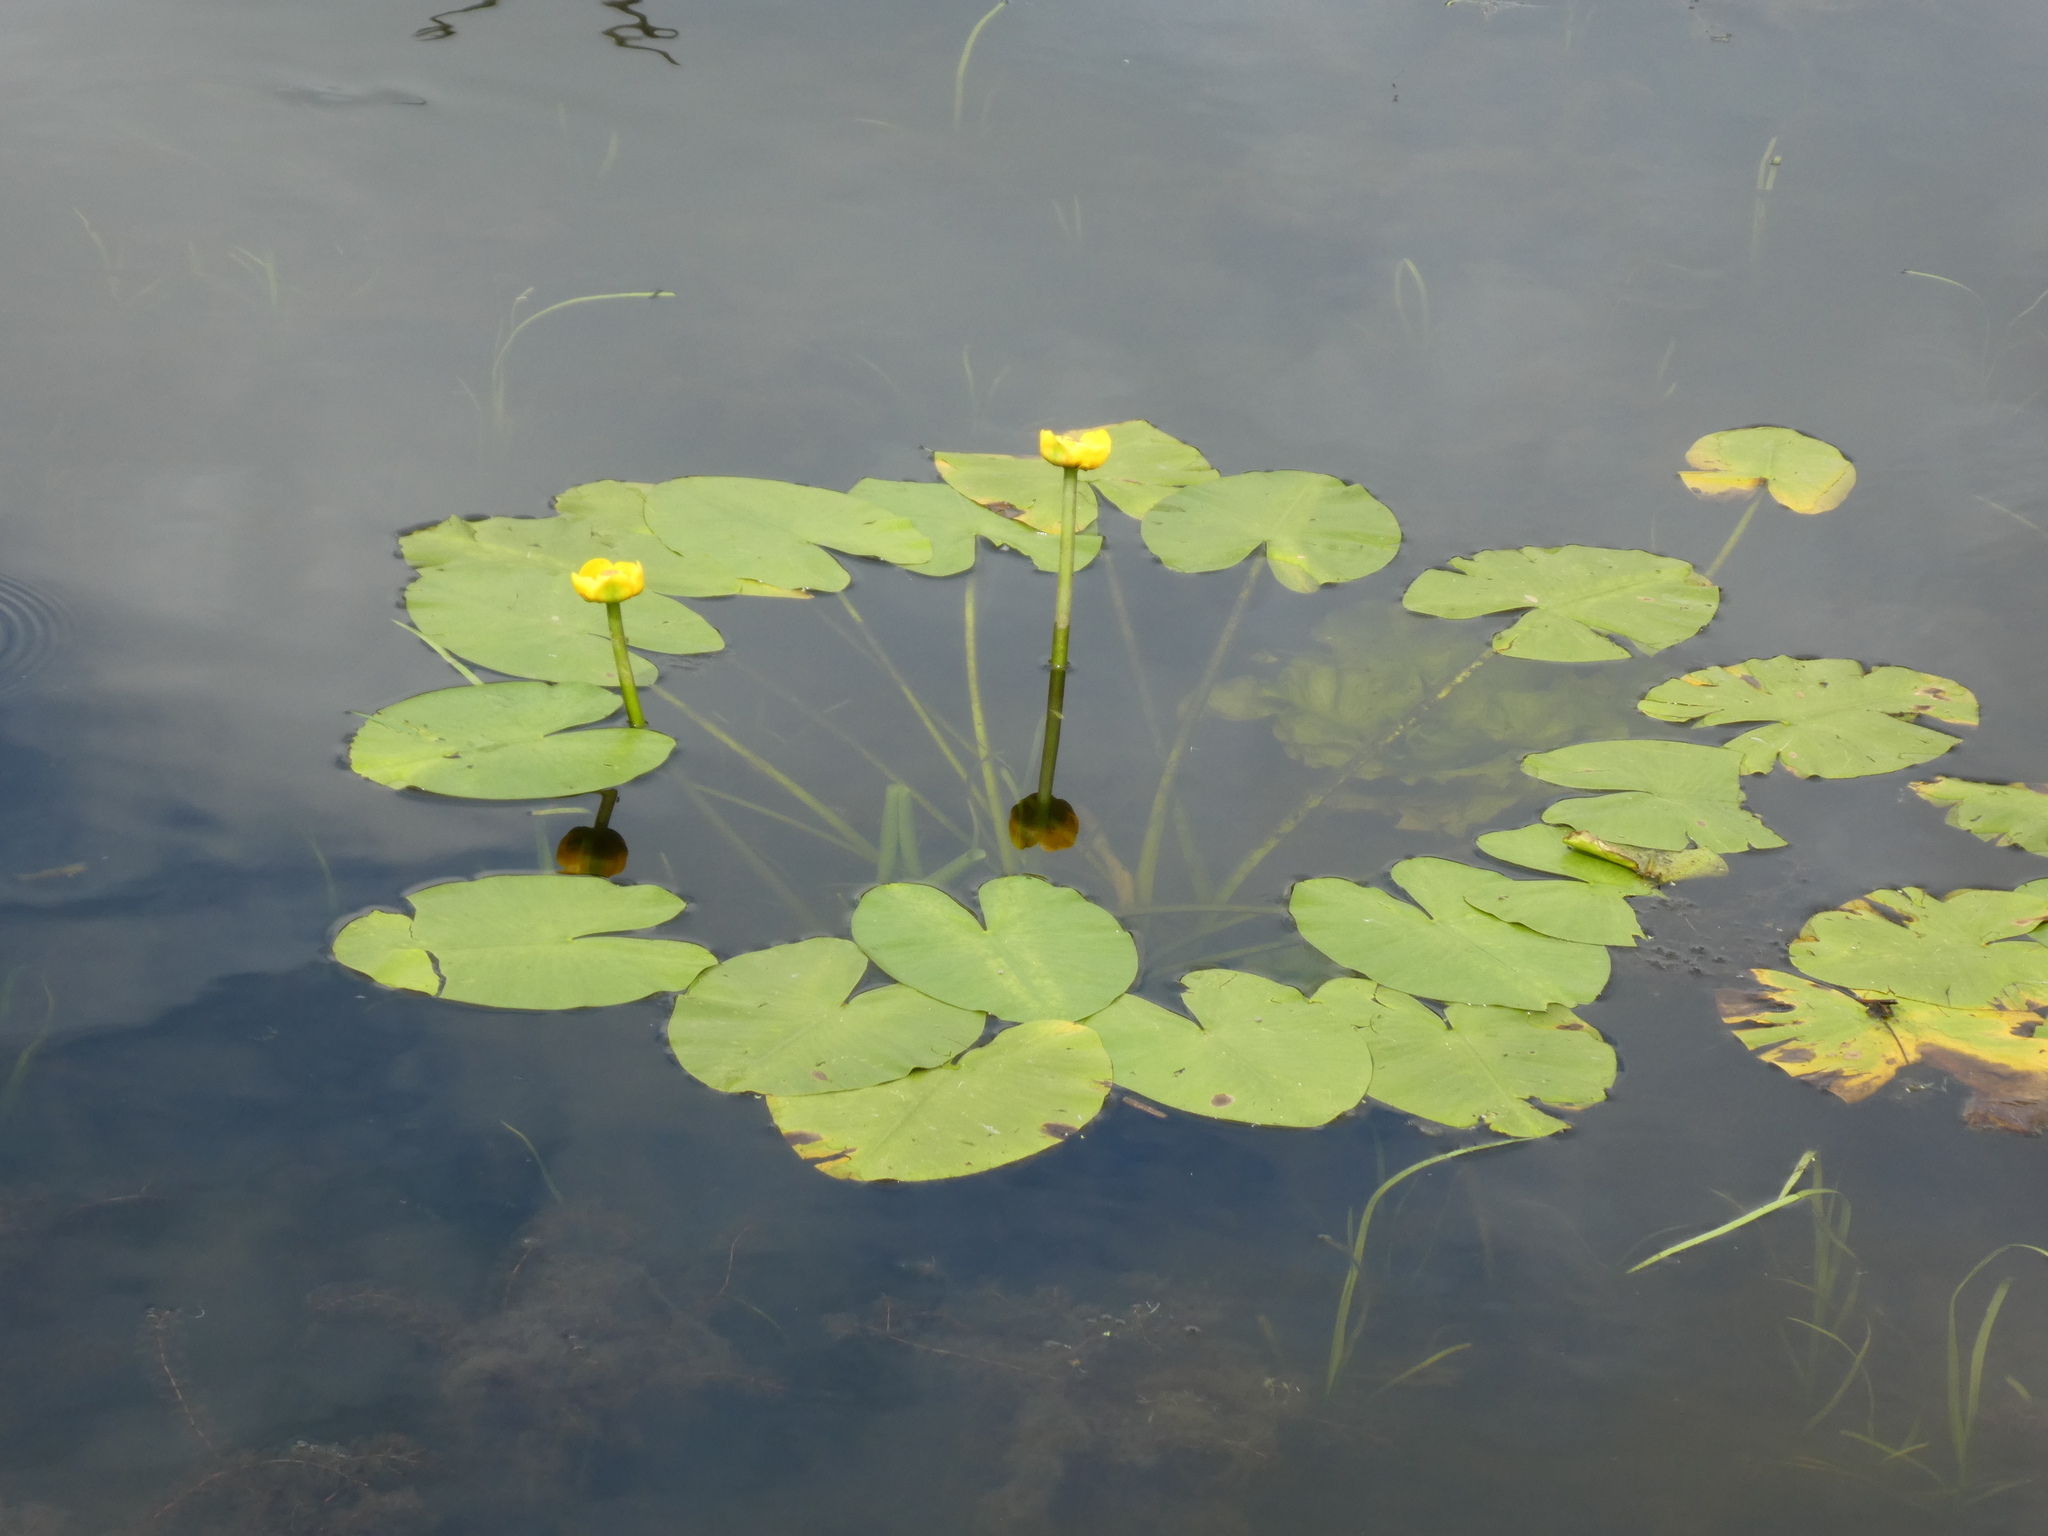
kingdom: Plantae
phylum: Tracheophyta
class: Magnoliopsida
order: Nymphaeales
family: Nymphaeaceae
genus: Nuphar
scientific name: Nuphar lutea
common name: Yellow water-lily
